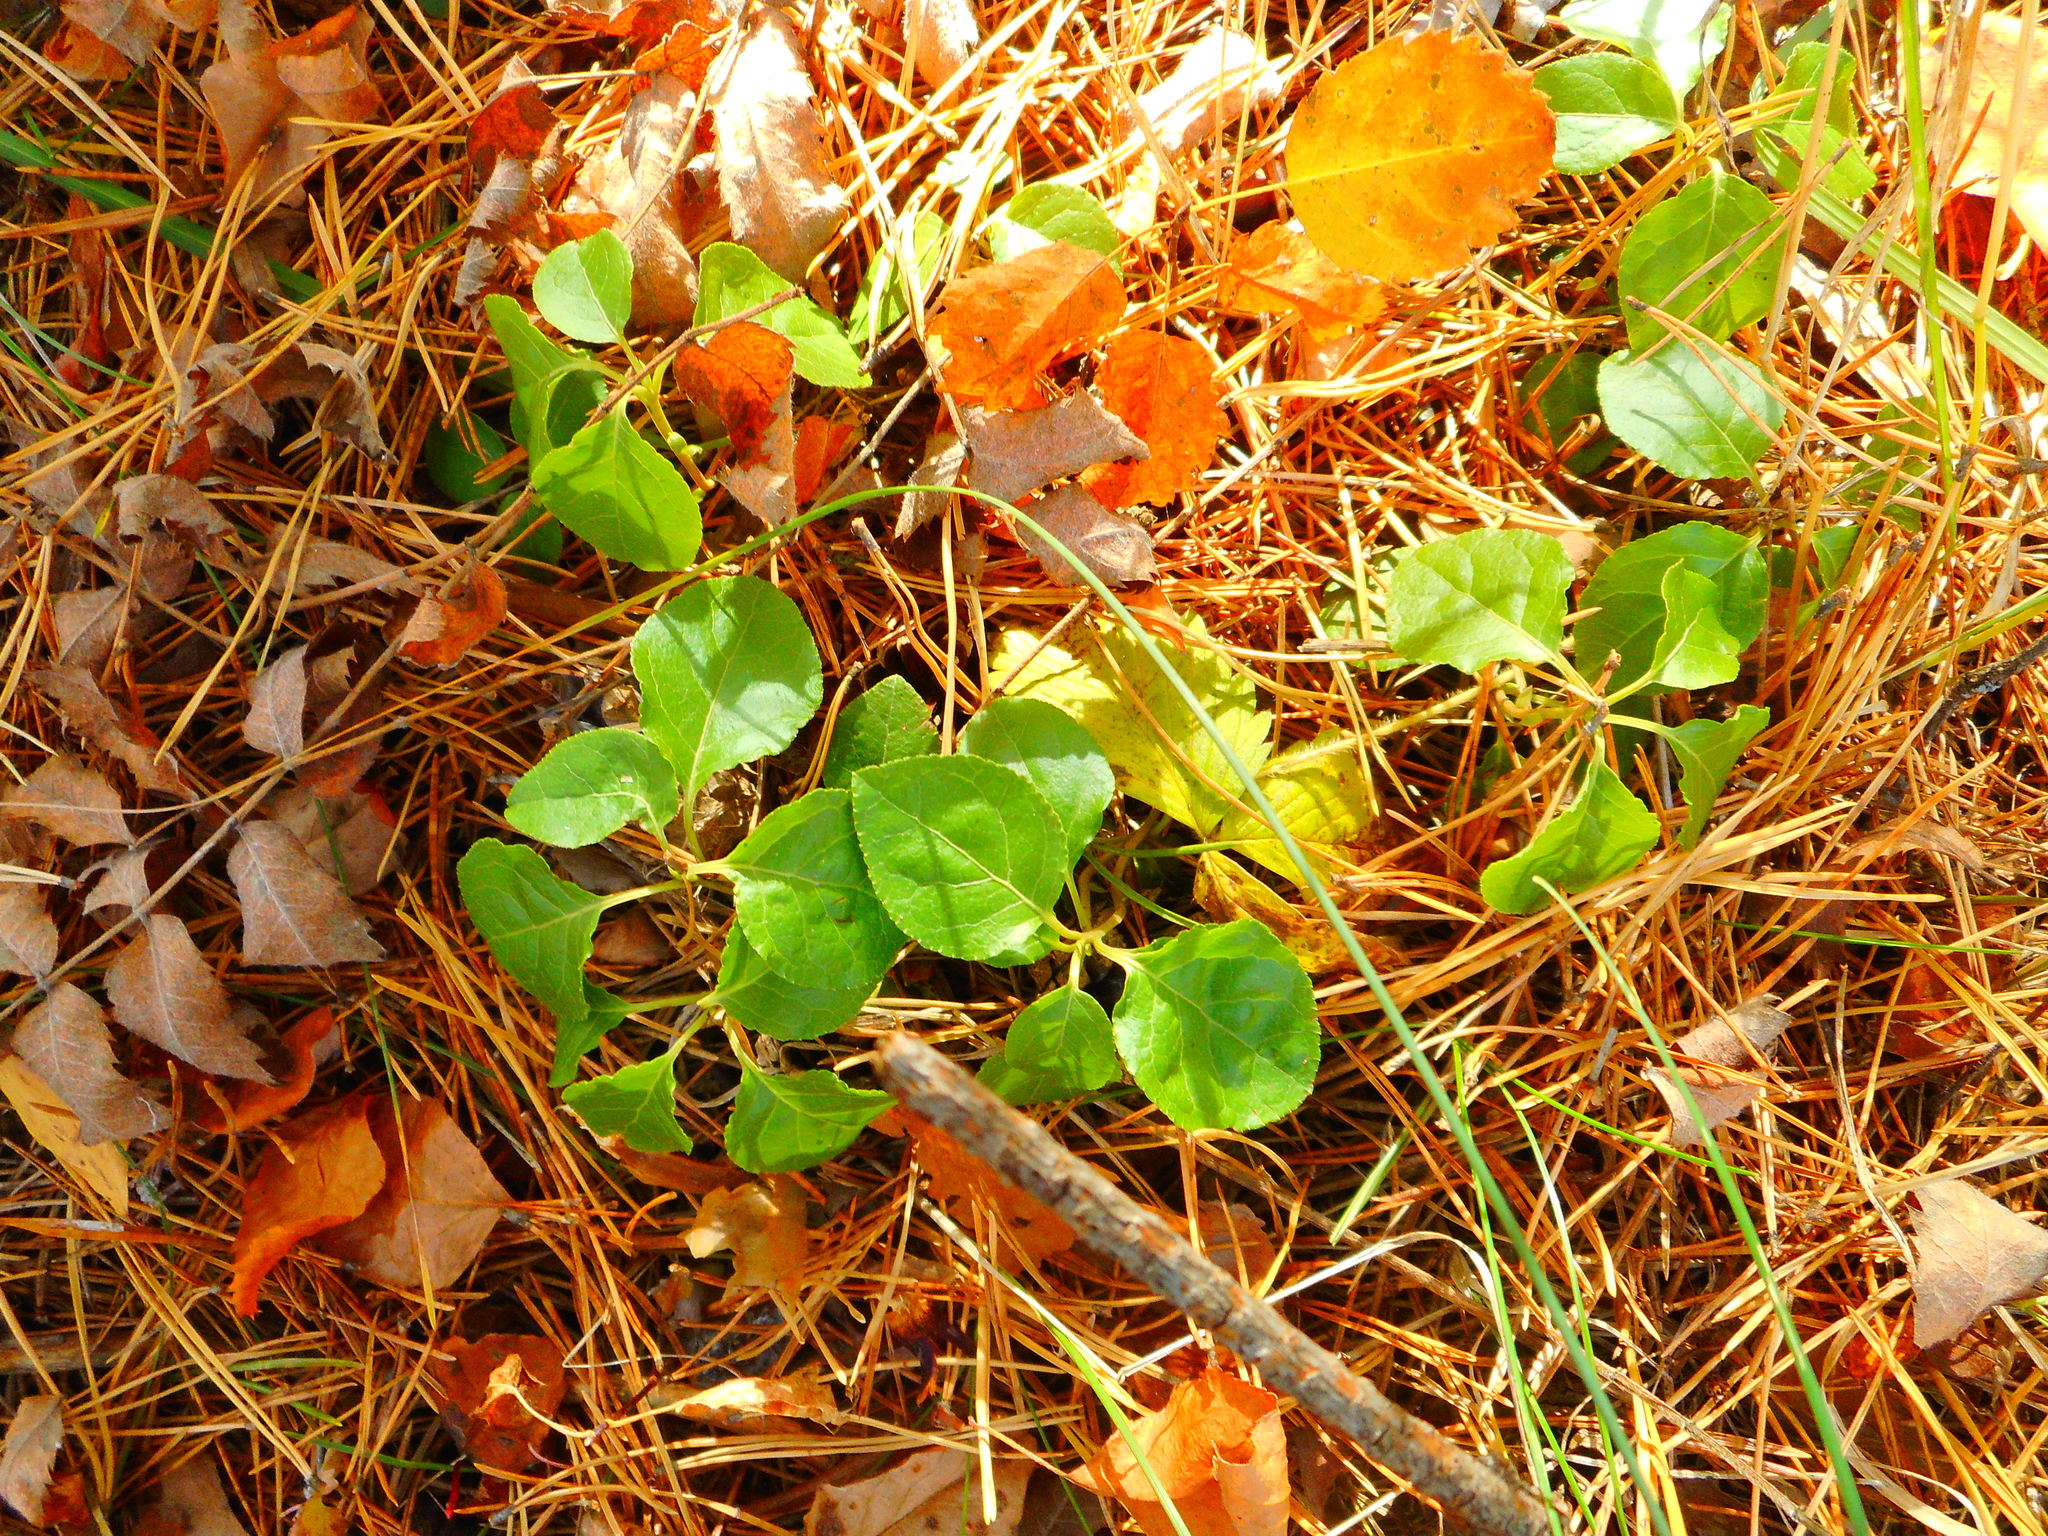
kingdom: Plantae
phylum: Tracheophyta
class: Magnoliopsida
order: Ericales
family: Ericaceae
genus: Orthilia
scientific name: Orthilia secunda
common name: One-sided orthilia
